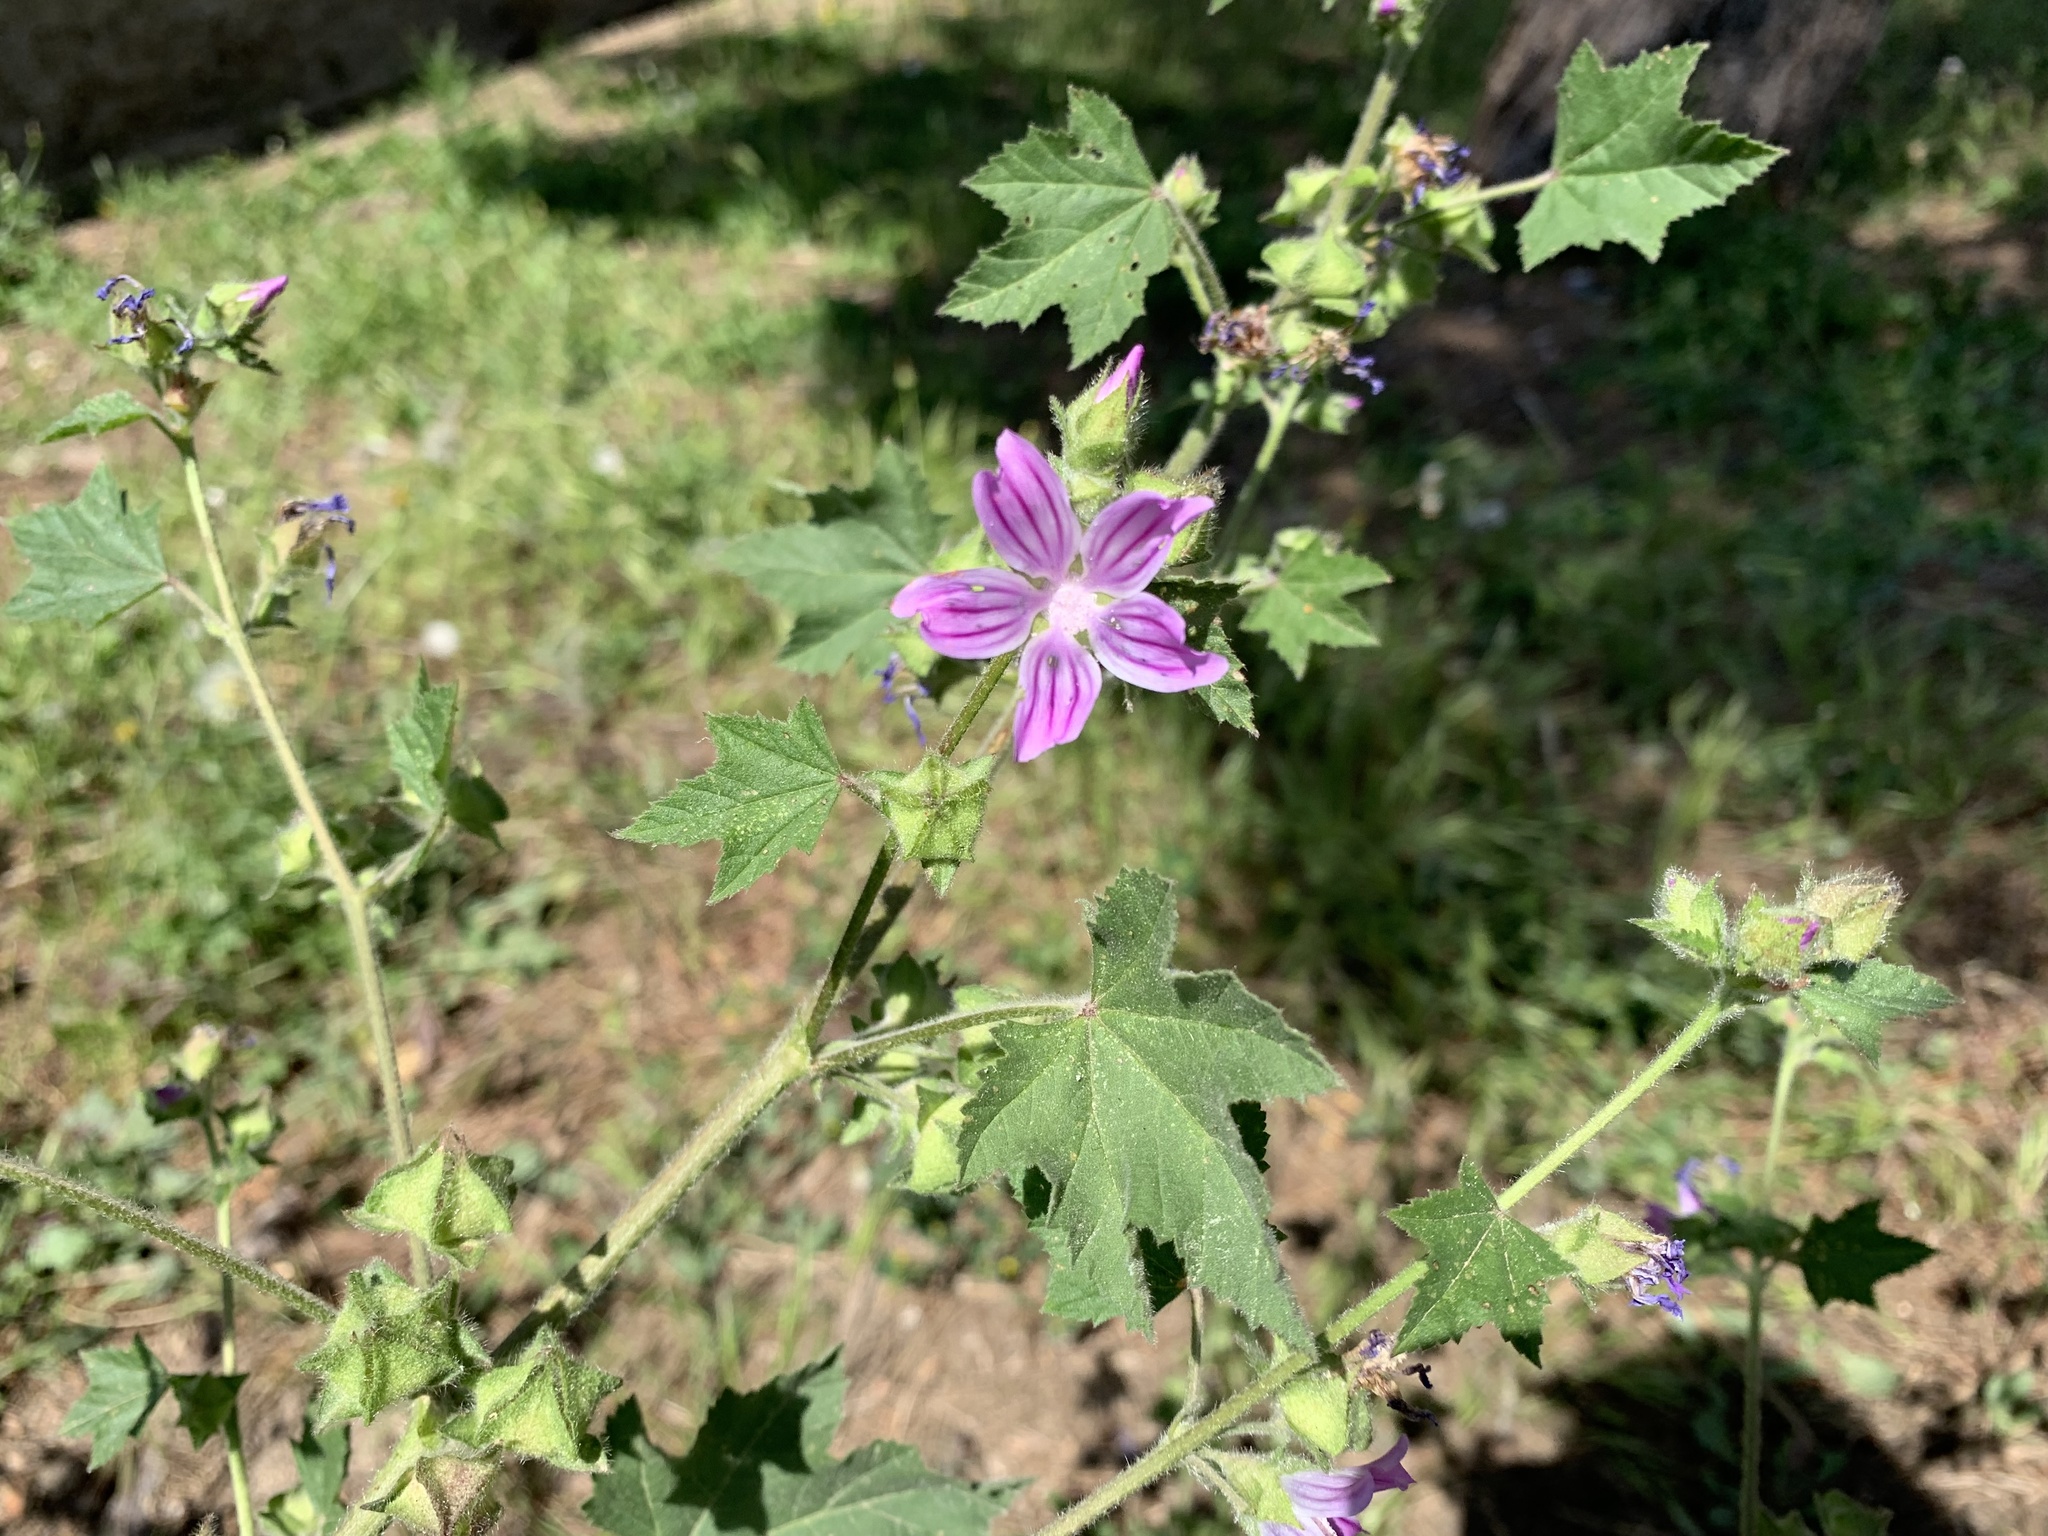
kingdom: Plantae
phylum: Tracheophyta
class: Magnoliopsida
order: Malvales
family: Malvaceae
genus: Malva
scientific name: Malva multiflora
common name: Cheeseweed
